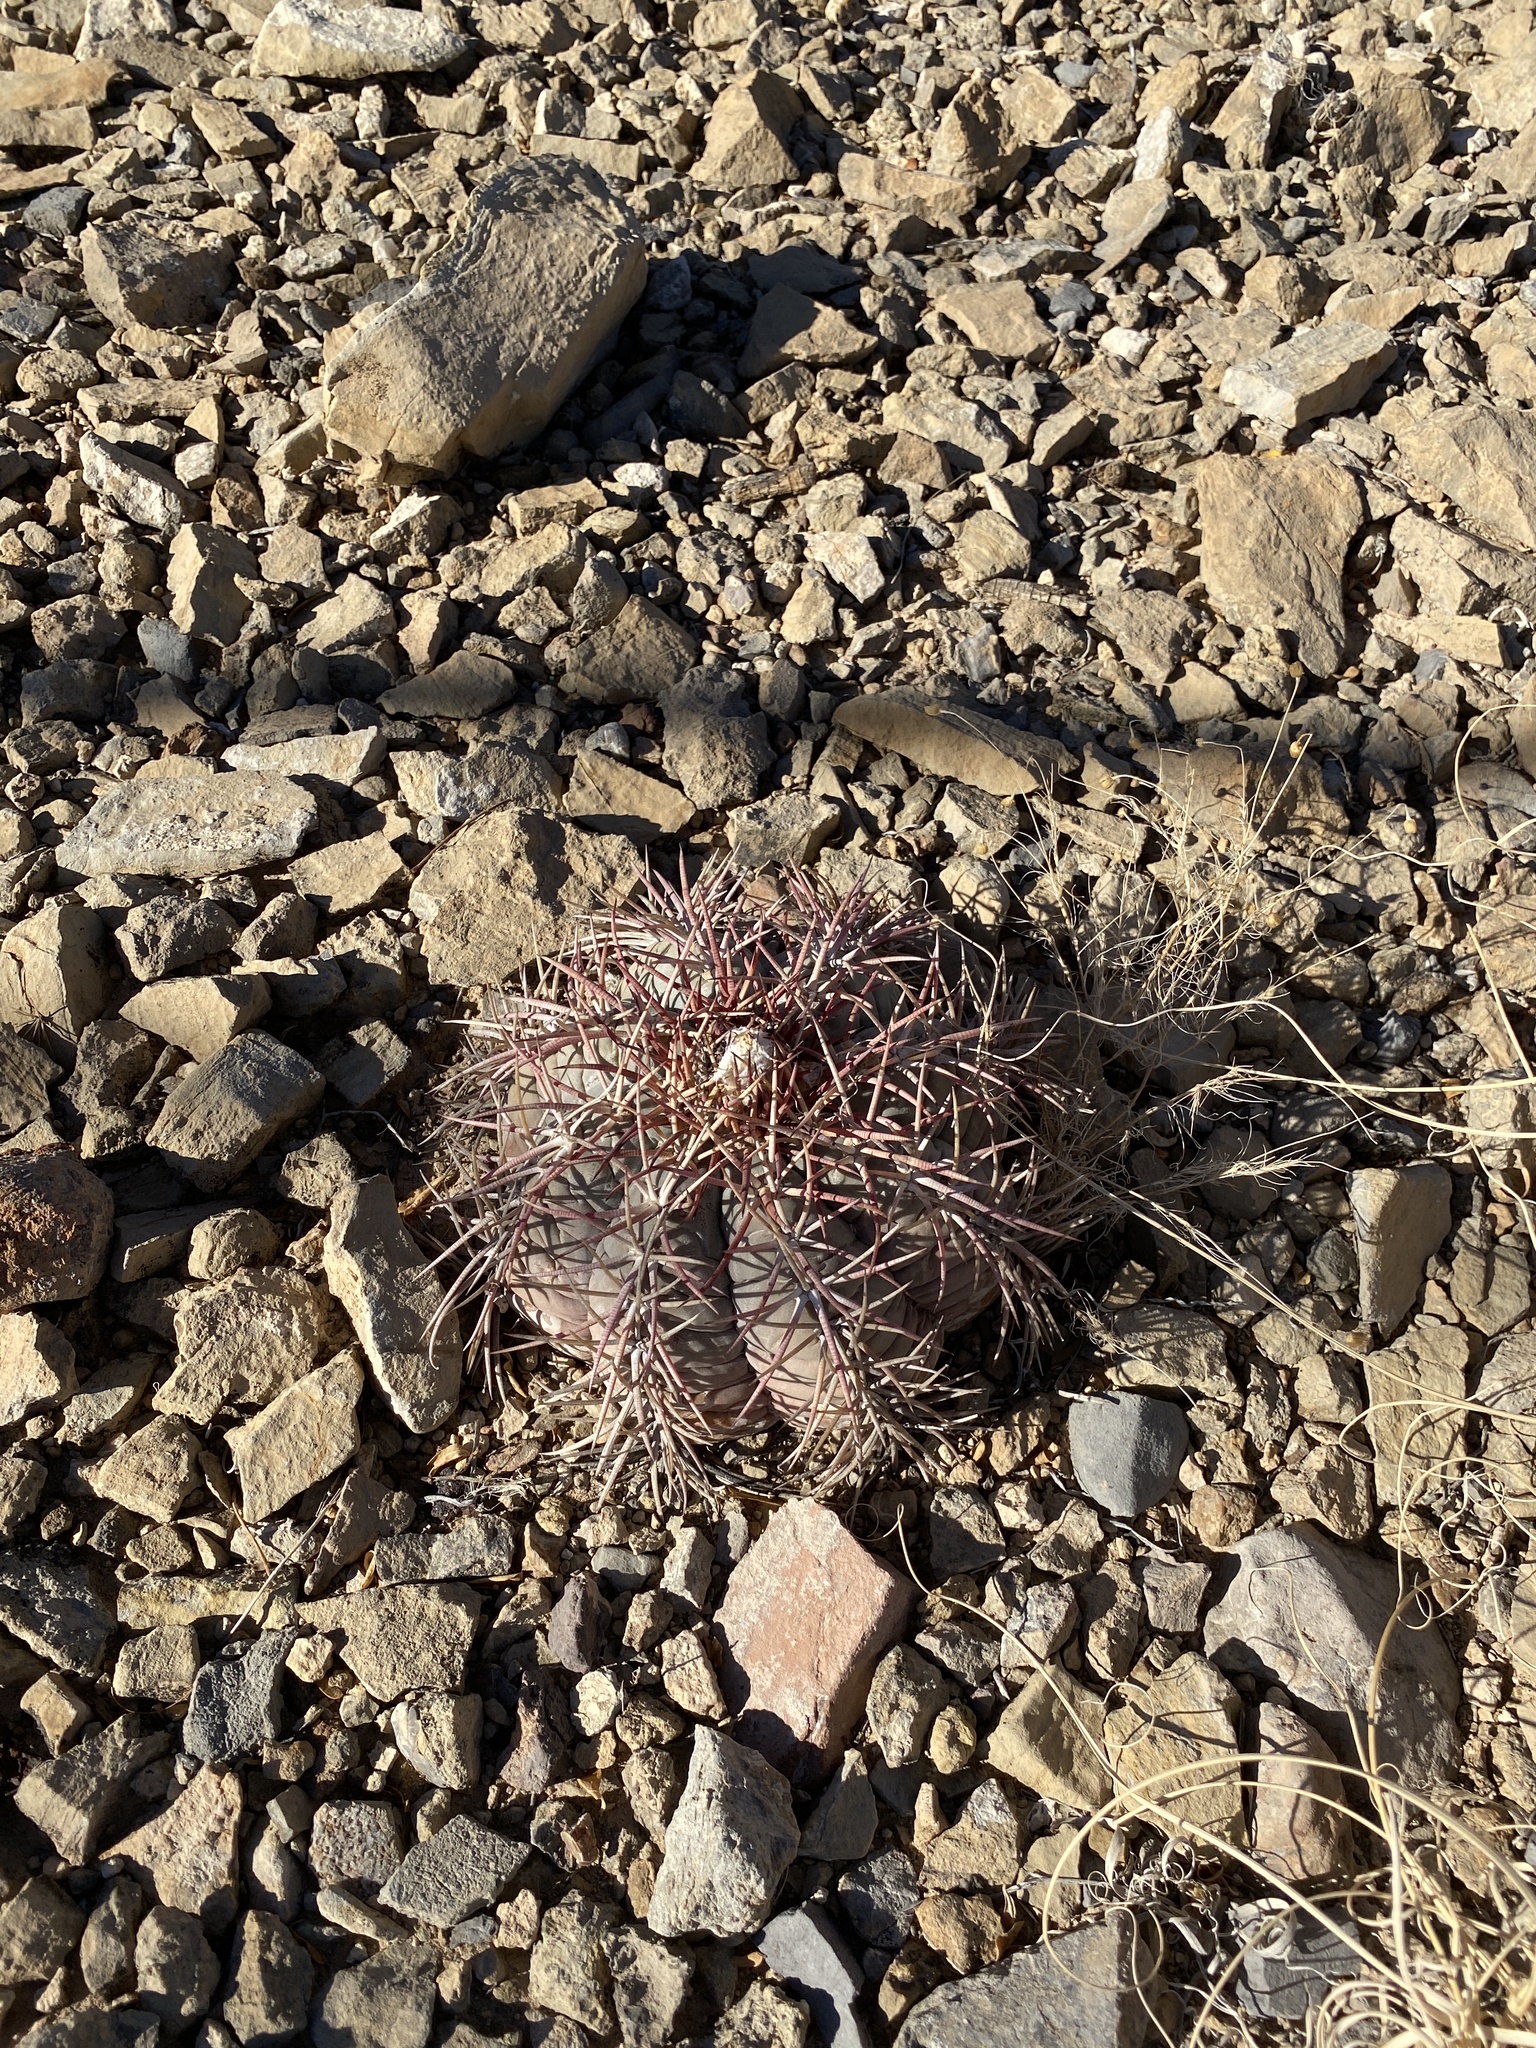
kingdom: Plantae
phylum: Tracheophyta
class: Magnoliopsida
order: Caryophyllales
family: Cactaceae
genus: Echinocactus
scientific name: Echinocactus horizonthalonius
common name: Devilshead
